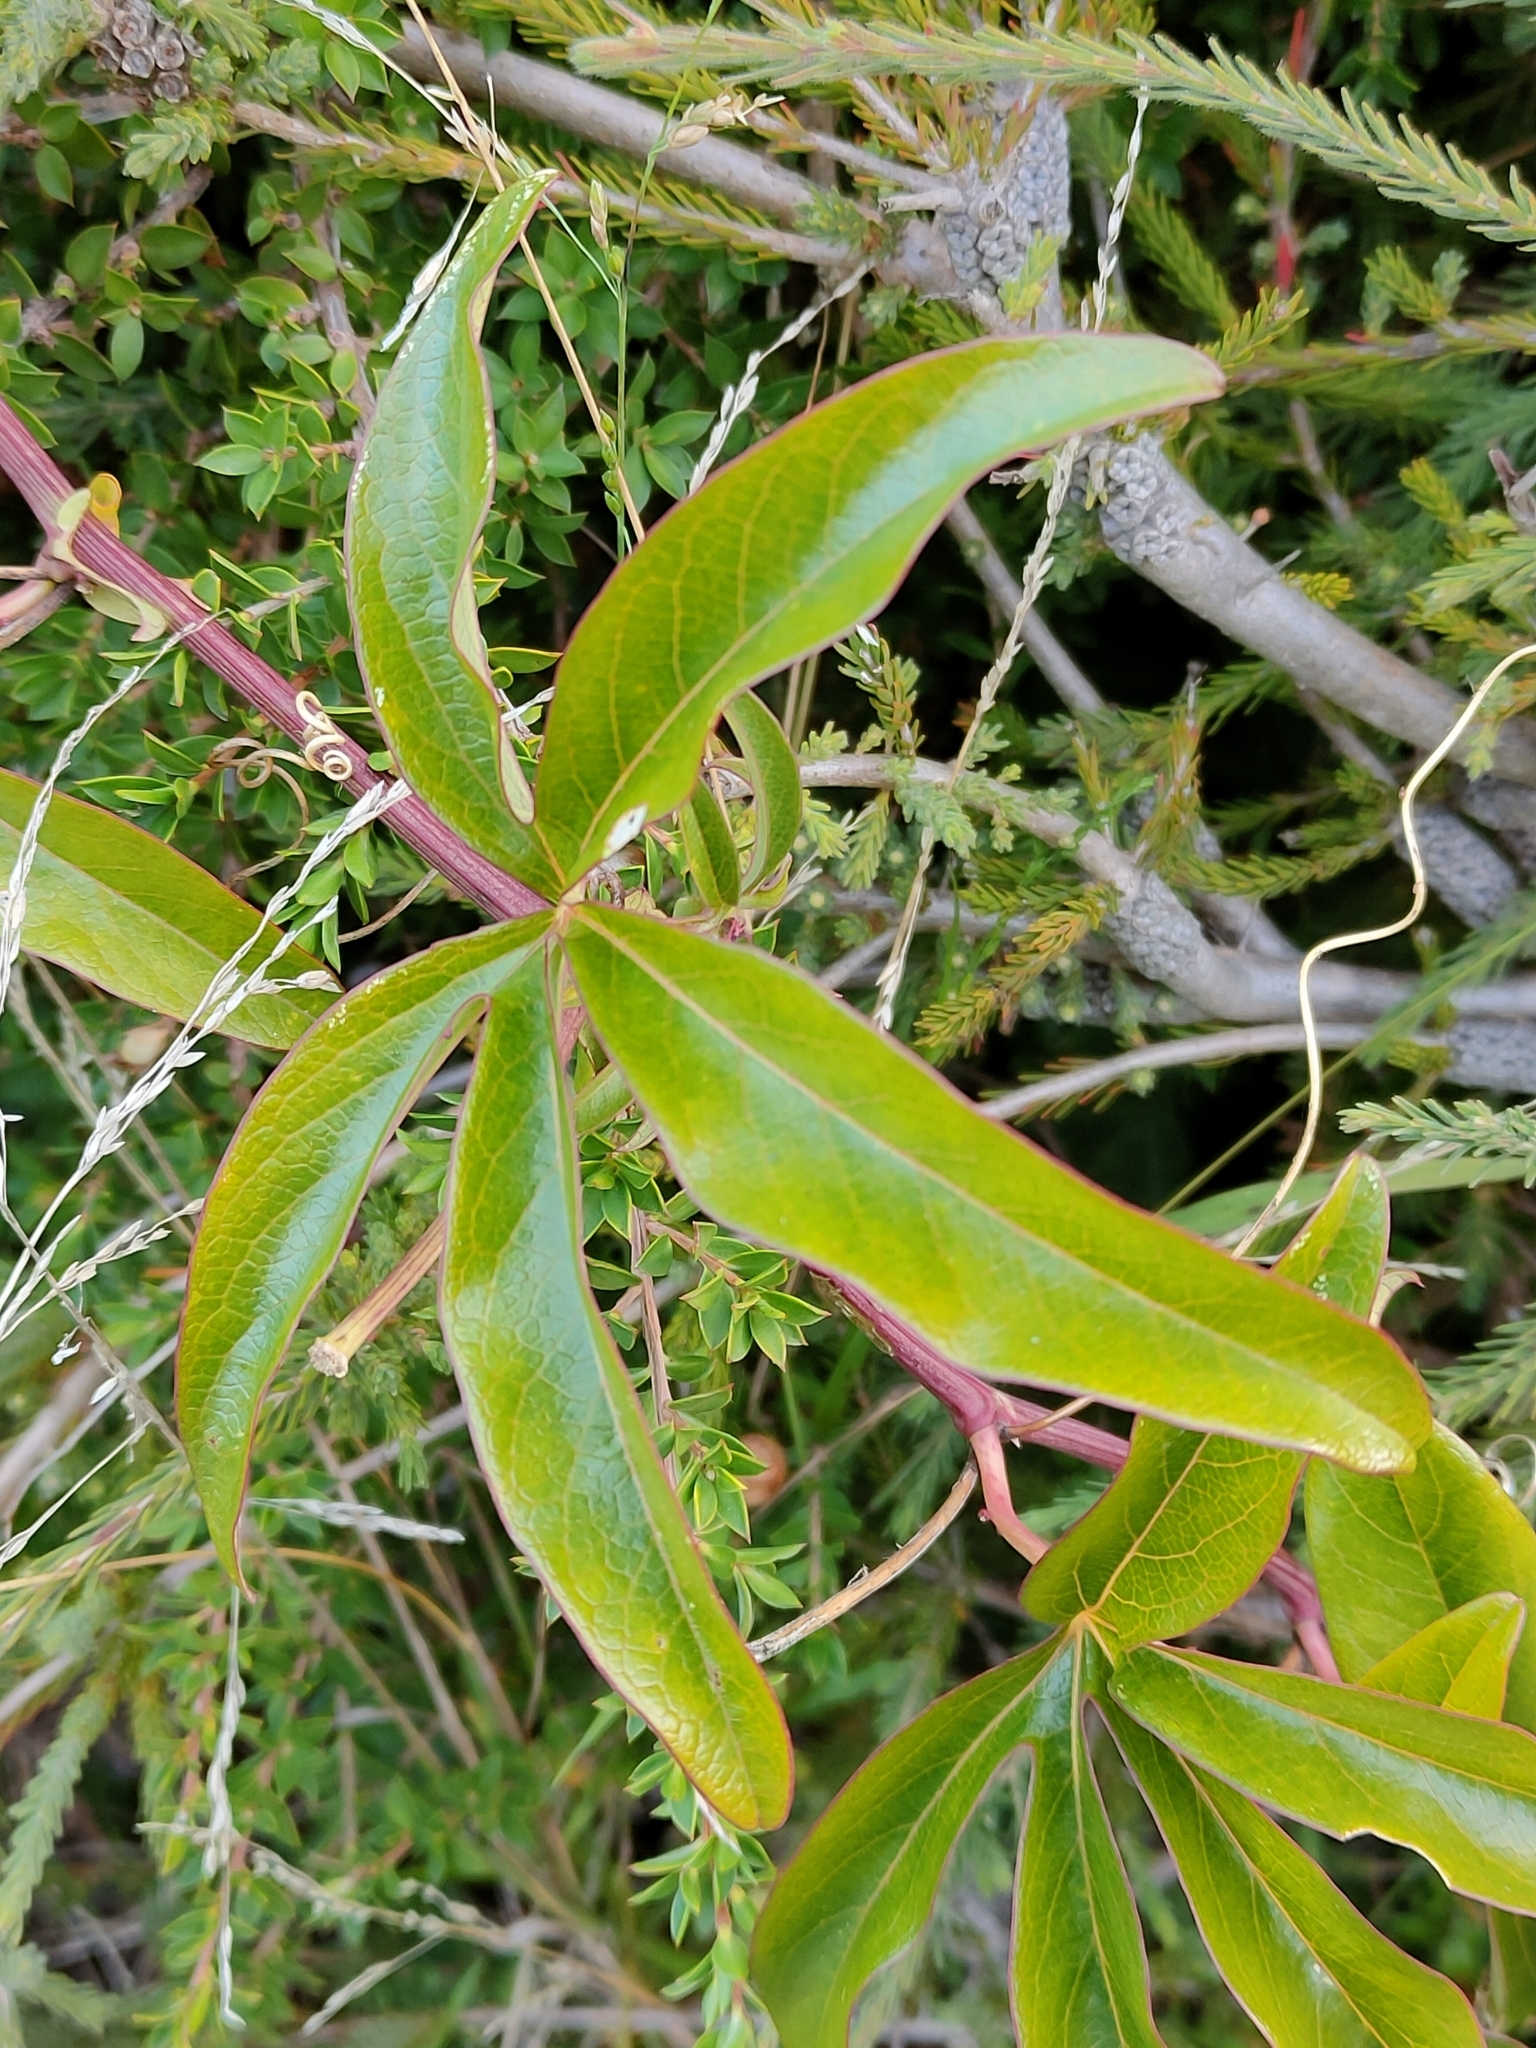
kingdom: Plantae
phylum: Tracheophyta
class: Magnoliopsida
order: Malpighiales
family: Passifloraceae
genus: Passiflora
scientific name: Passiflora caerulea
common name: Blue passionflower
